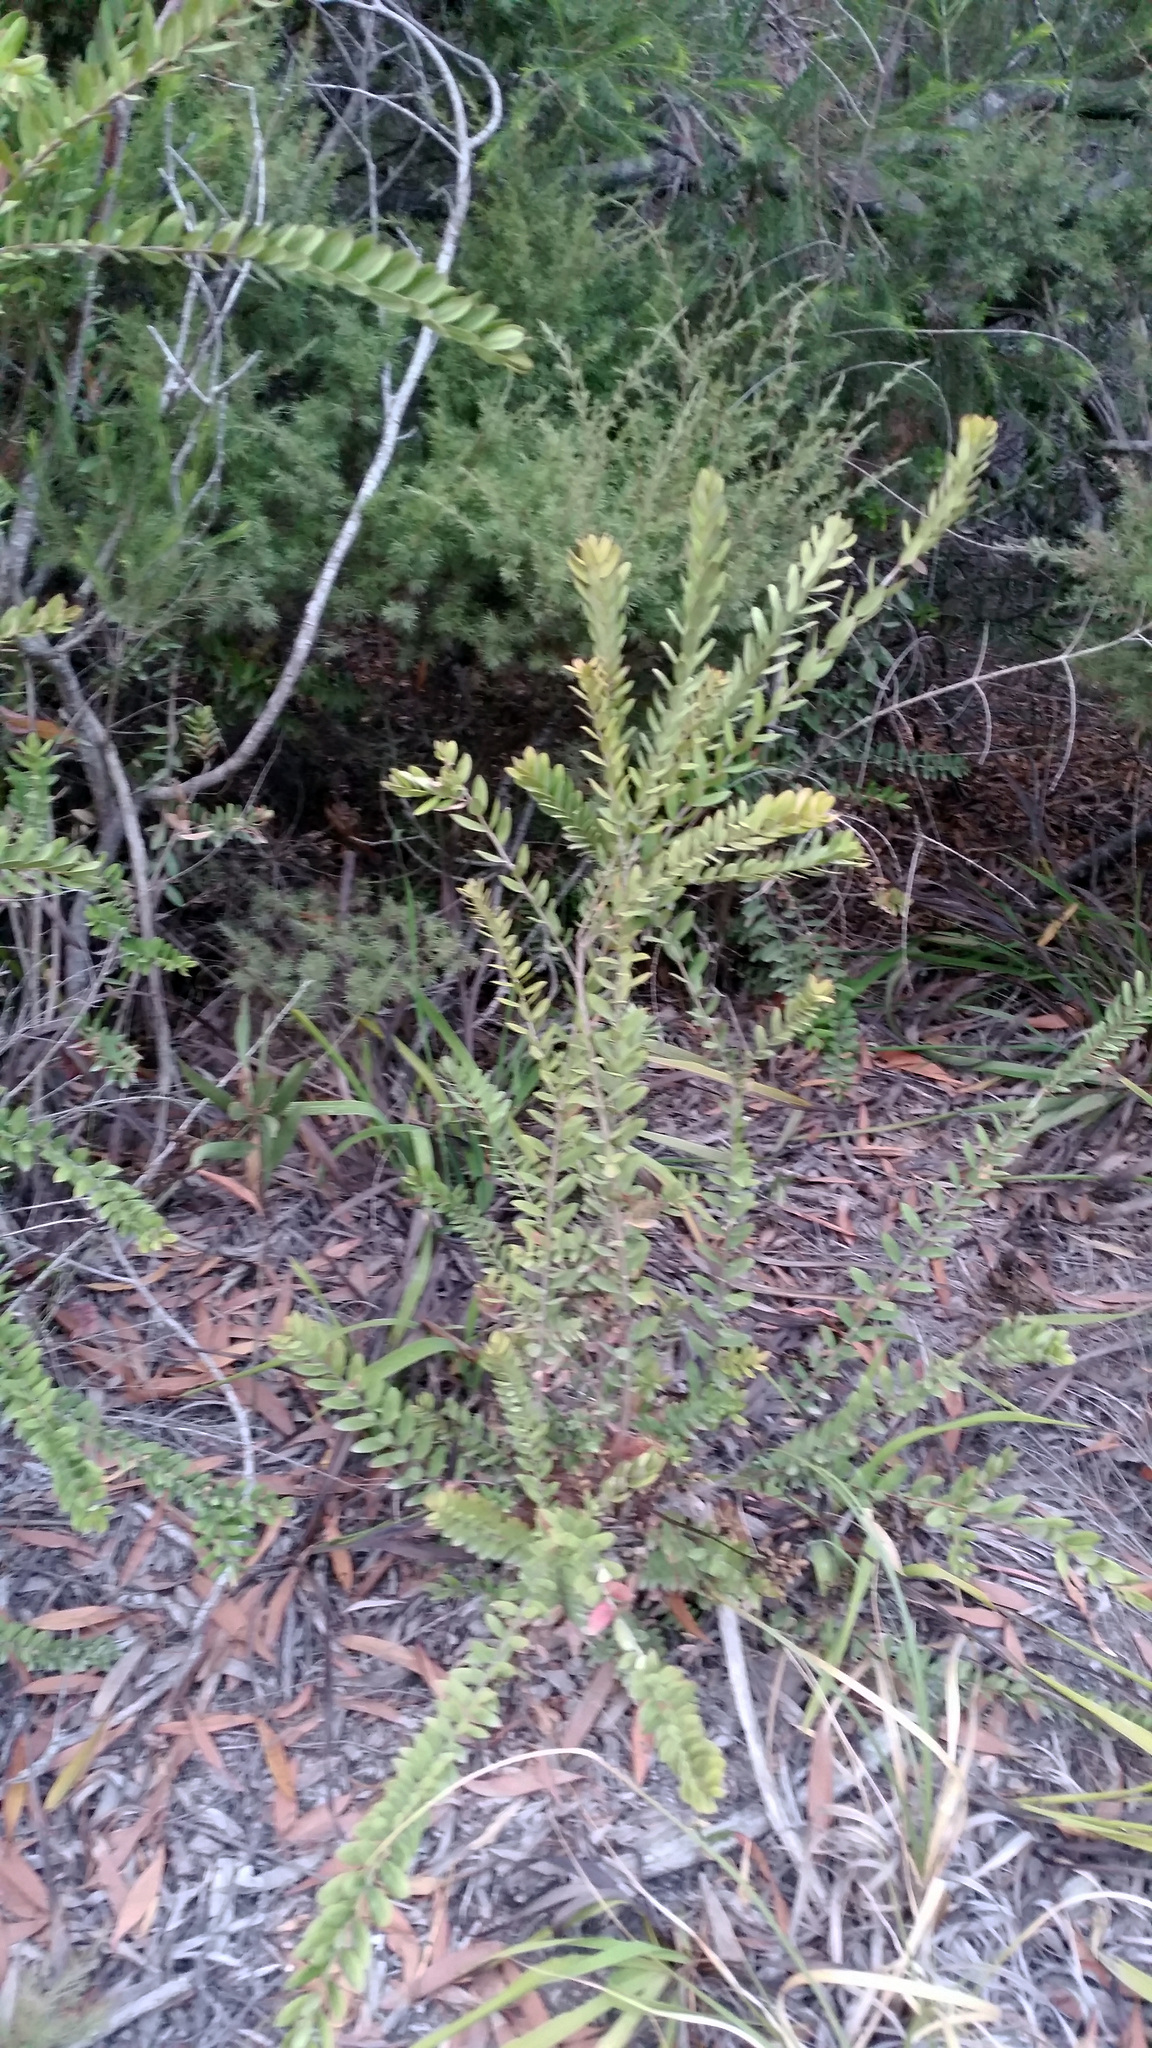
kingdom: Plantae
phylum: Tracheophyta
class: Magnoliopsida
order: Myrtales
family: Myrtaceae
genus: Melaleuca
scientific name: Melaleuca hypericifolia
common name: Red honey myrtle
